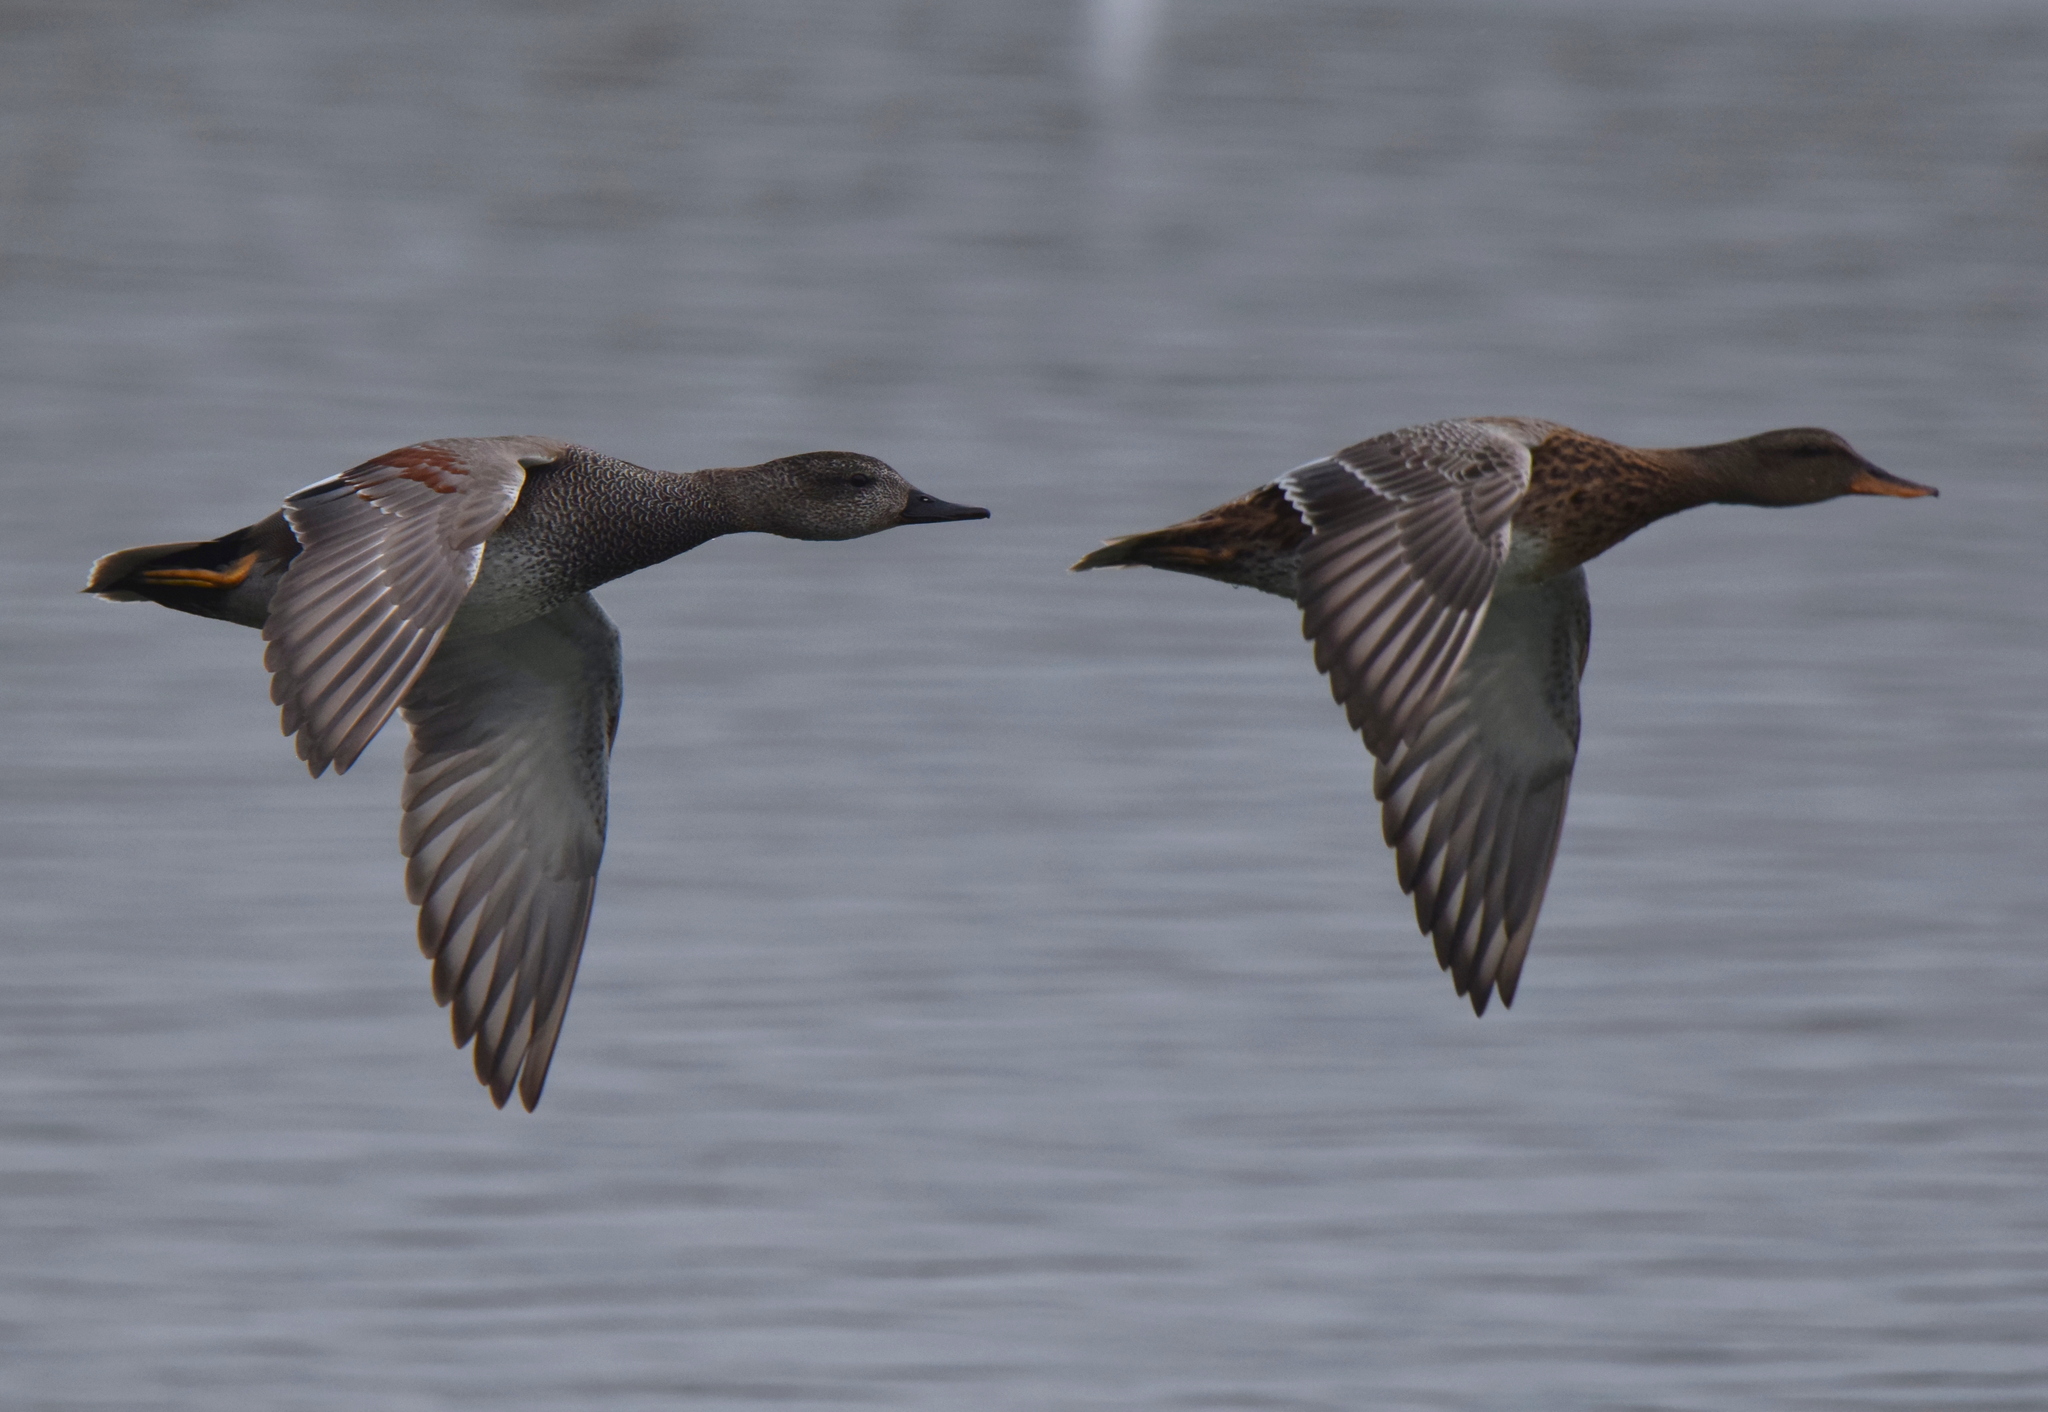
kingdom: Animalia
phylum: Chordata
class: Aves
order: Anseriformes
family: Anatidae
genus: Mareca
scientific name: Mareca strepera
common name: Gadwall
